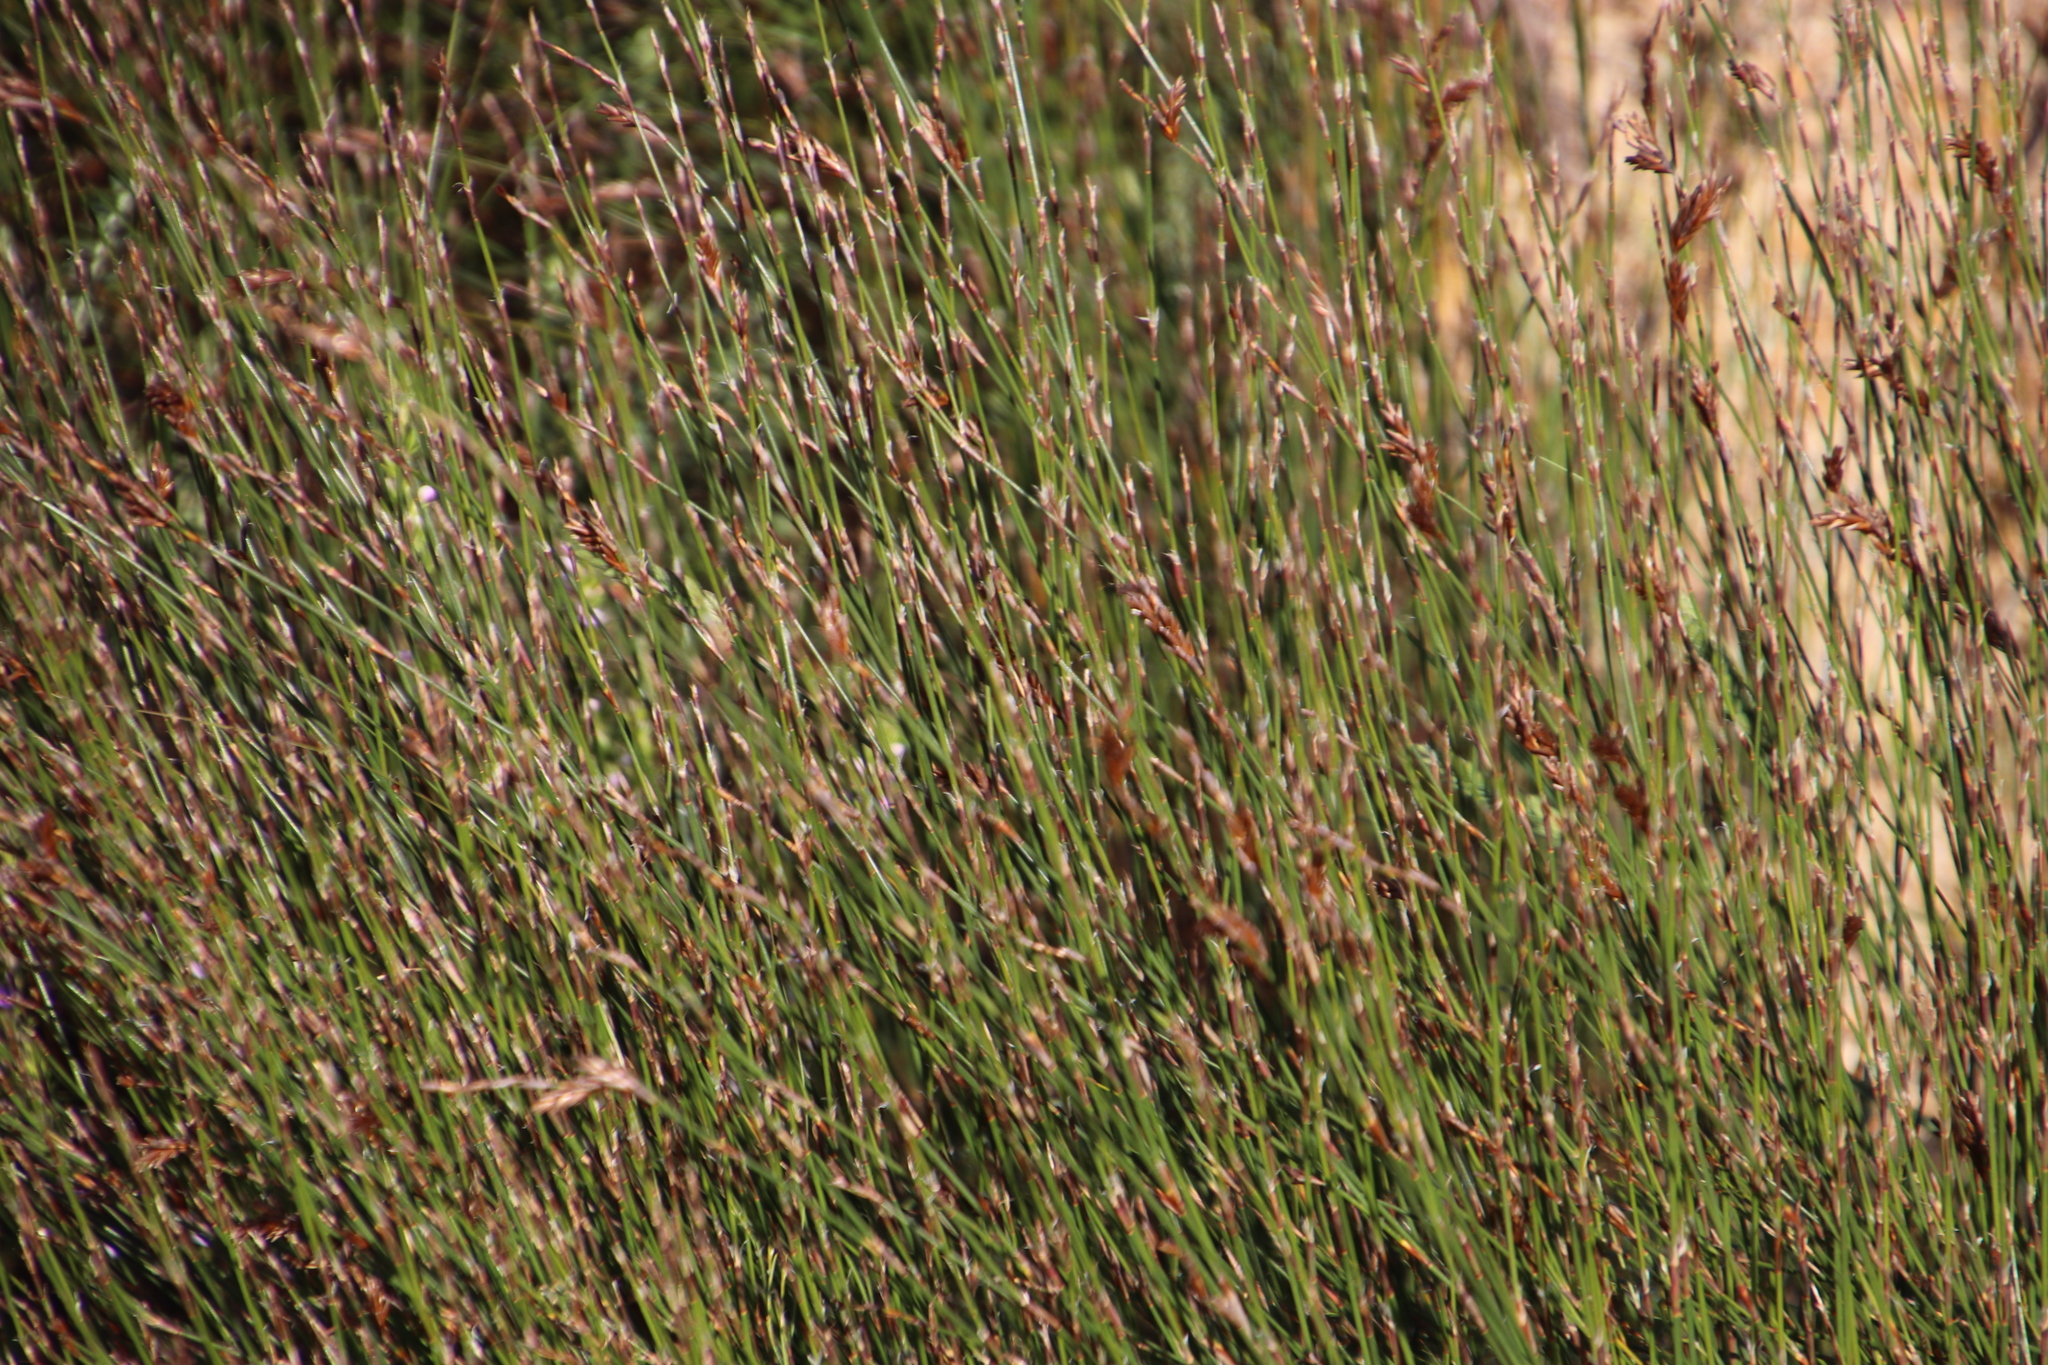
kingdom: Plantae
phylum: Tracheophyta
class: Liliopsida
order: Poales
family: Restionaceae
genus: Restio
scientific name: Restio triticeus
